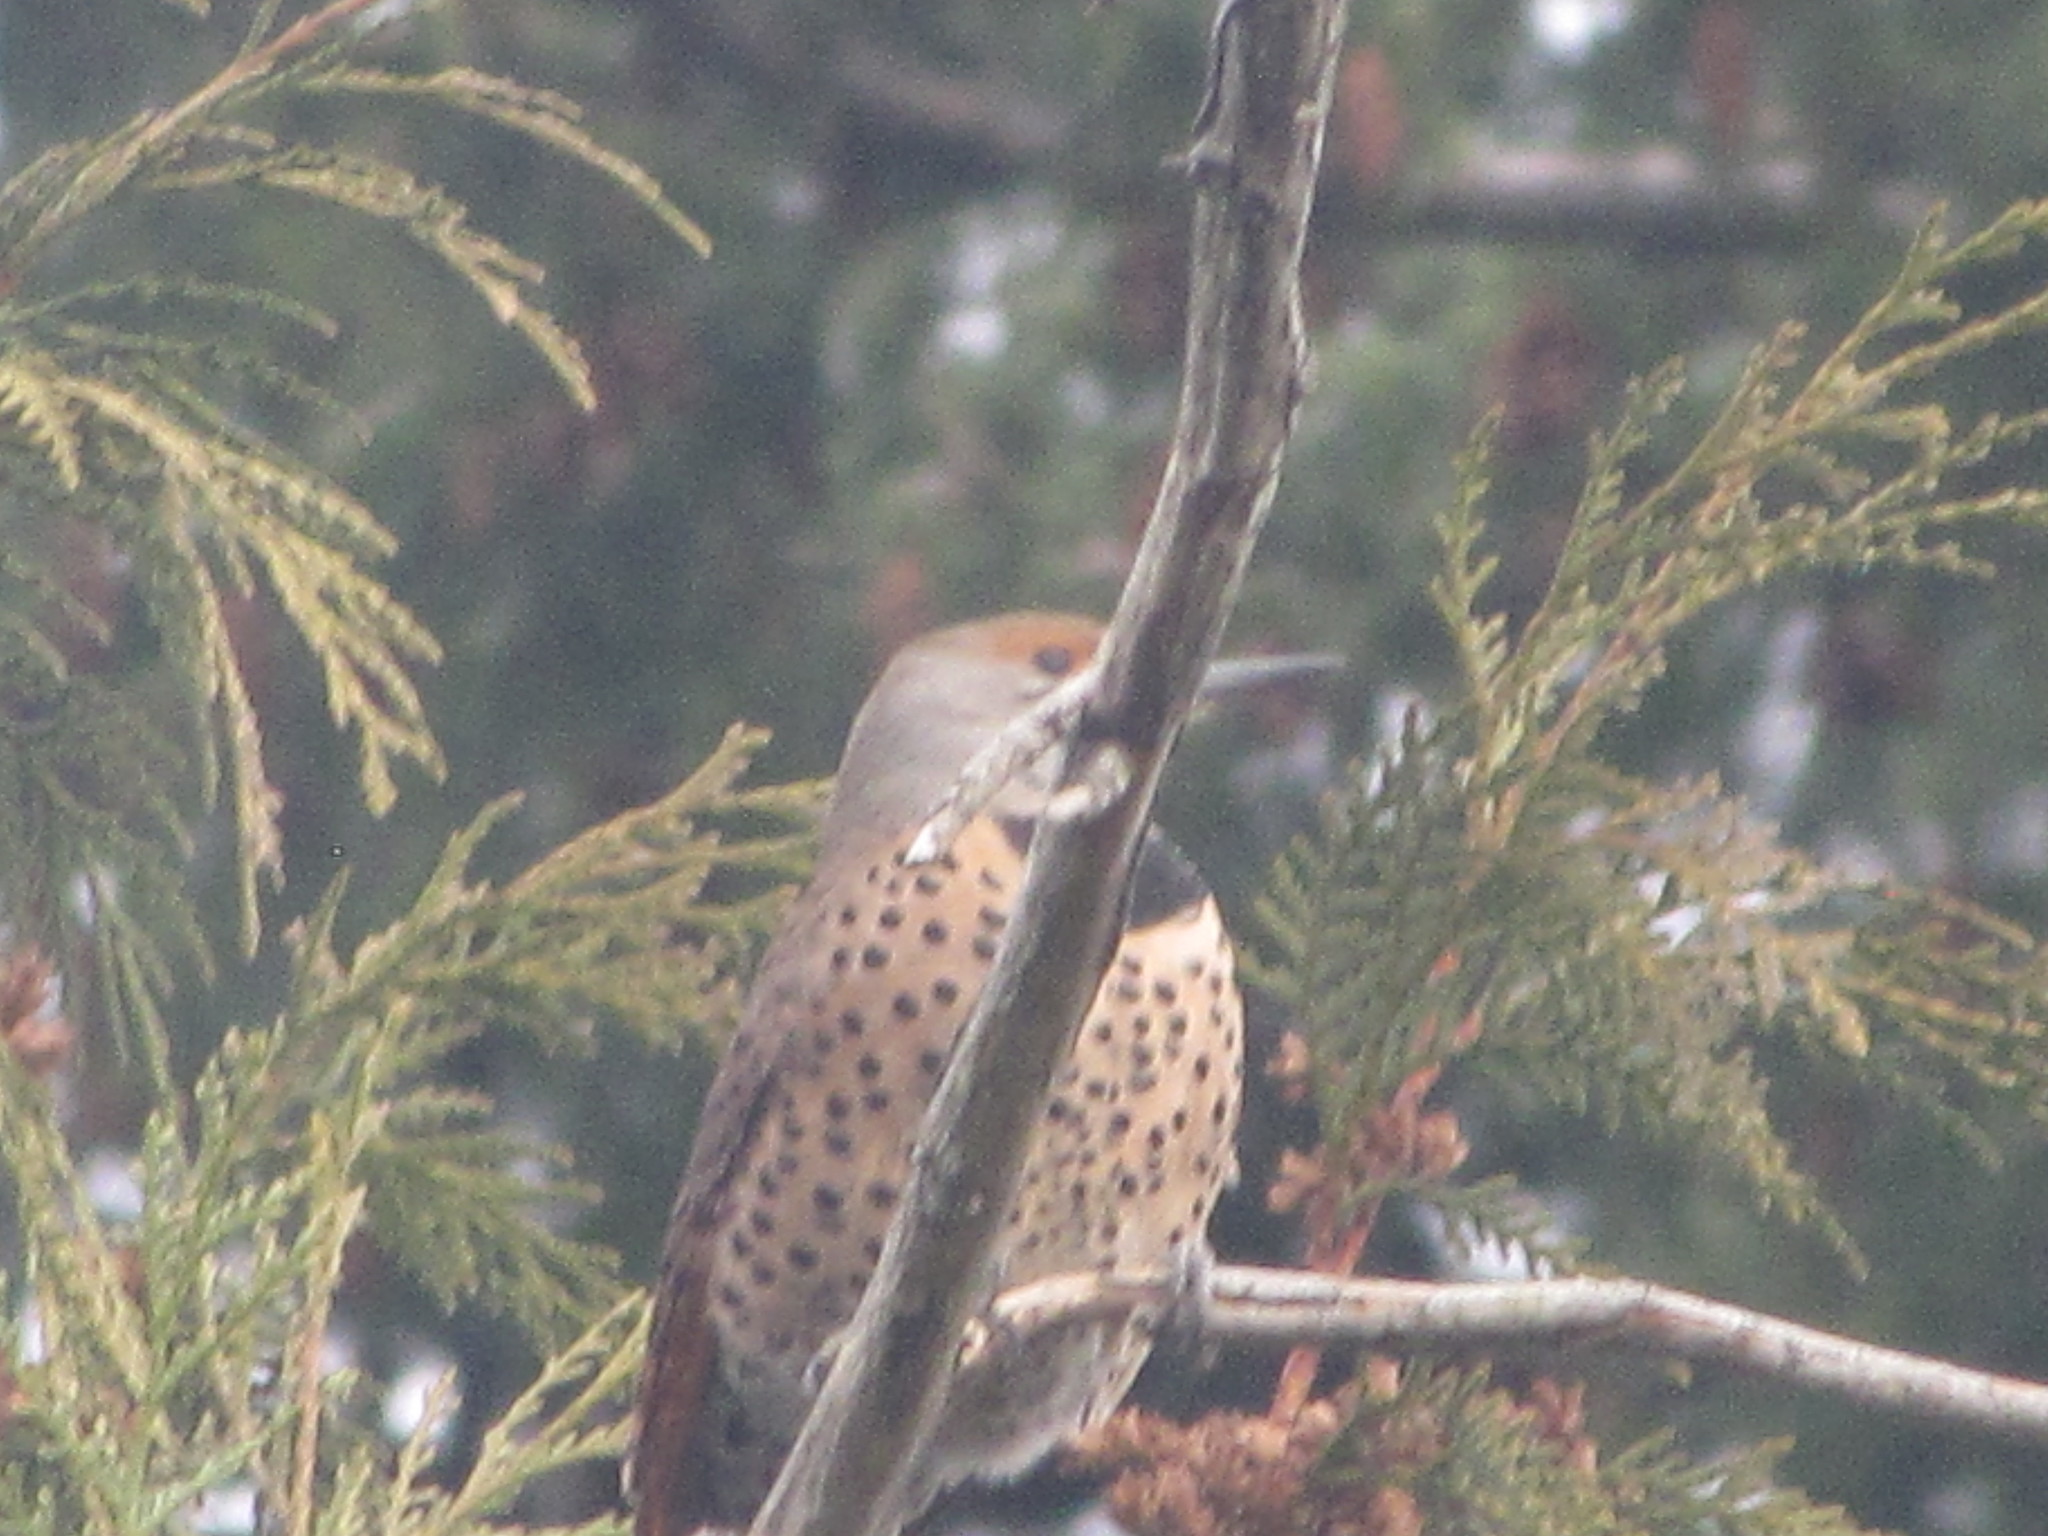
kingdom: Animalia
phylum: Chordata
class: Aves
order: Piciformes
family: Picidae
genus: Colaptes
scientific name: Colaptes auratus
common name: Northern flicker
